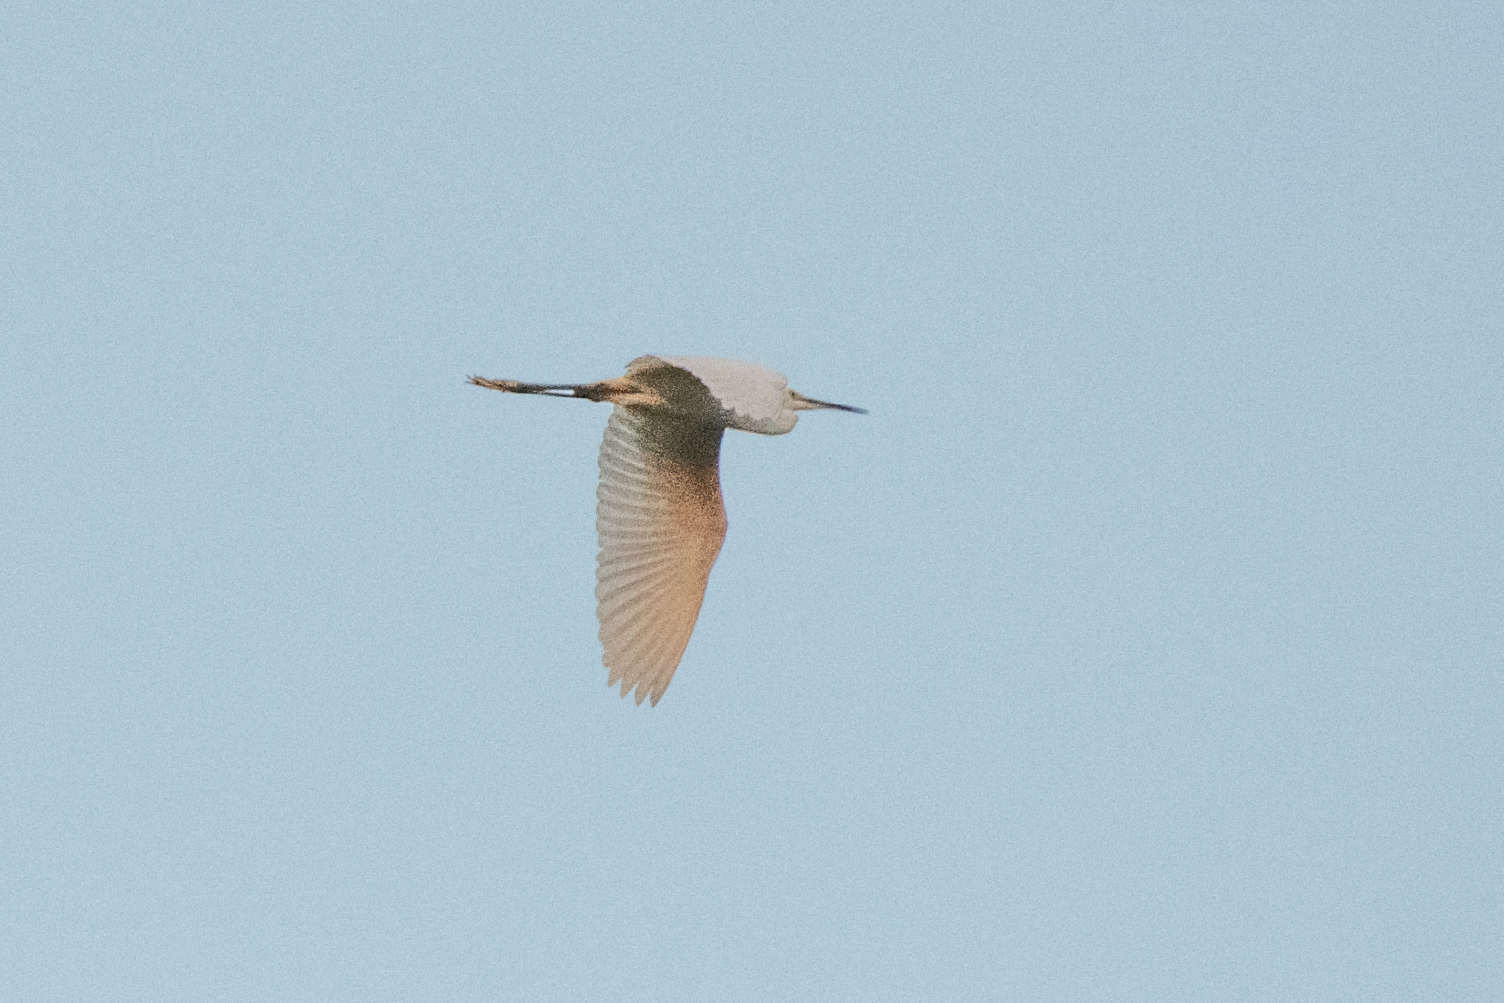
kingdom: Animalia
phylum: Chordata
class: Aves
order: Pelecaniformes
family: Ardeidae
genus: Egretta
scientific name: Egretta garzetta
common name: Little egret
